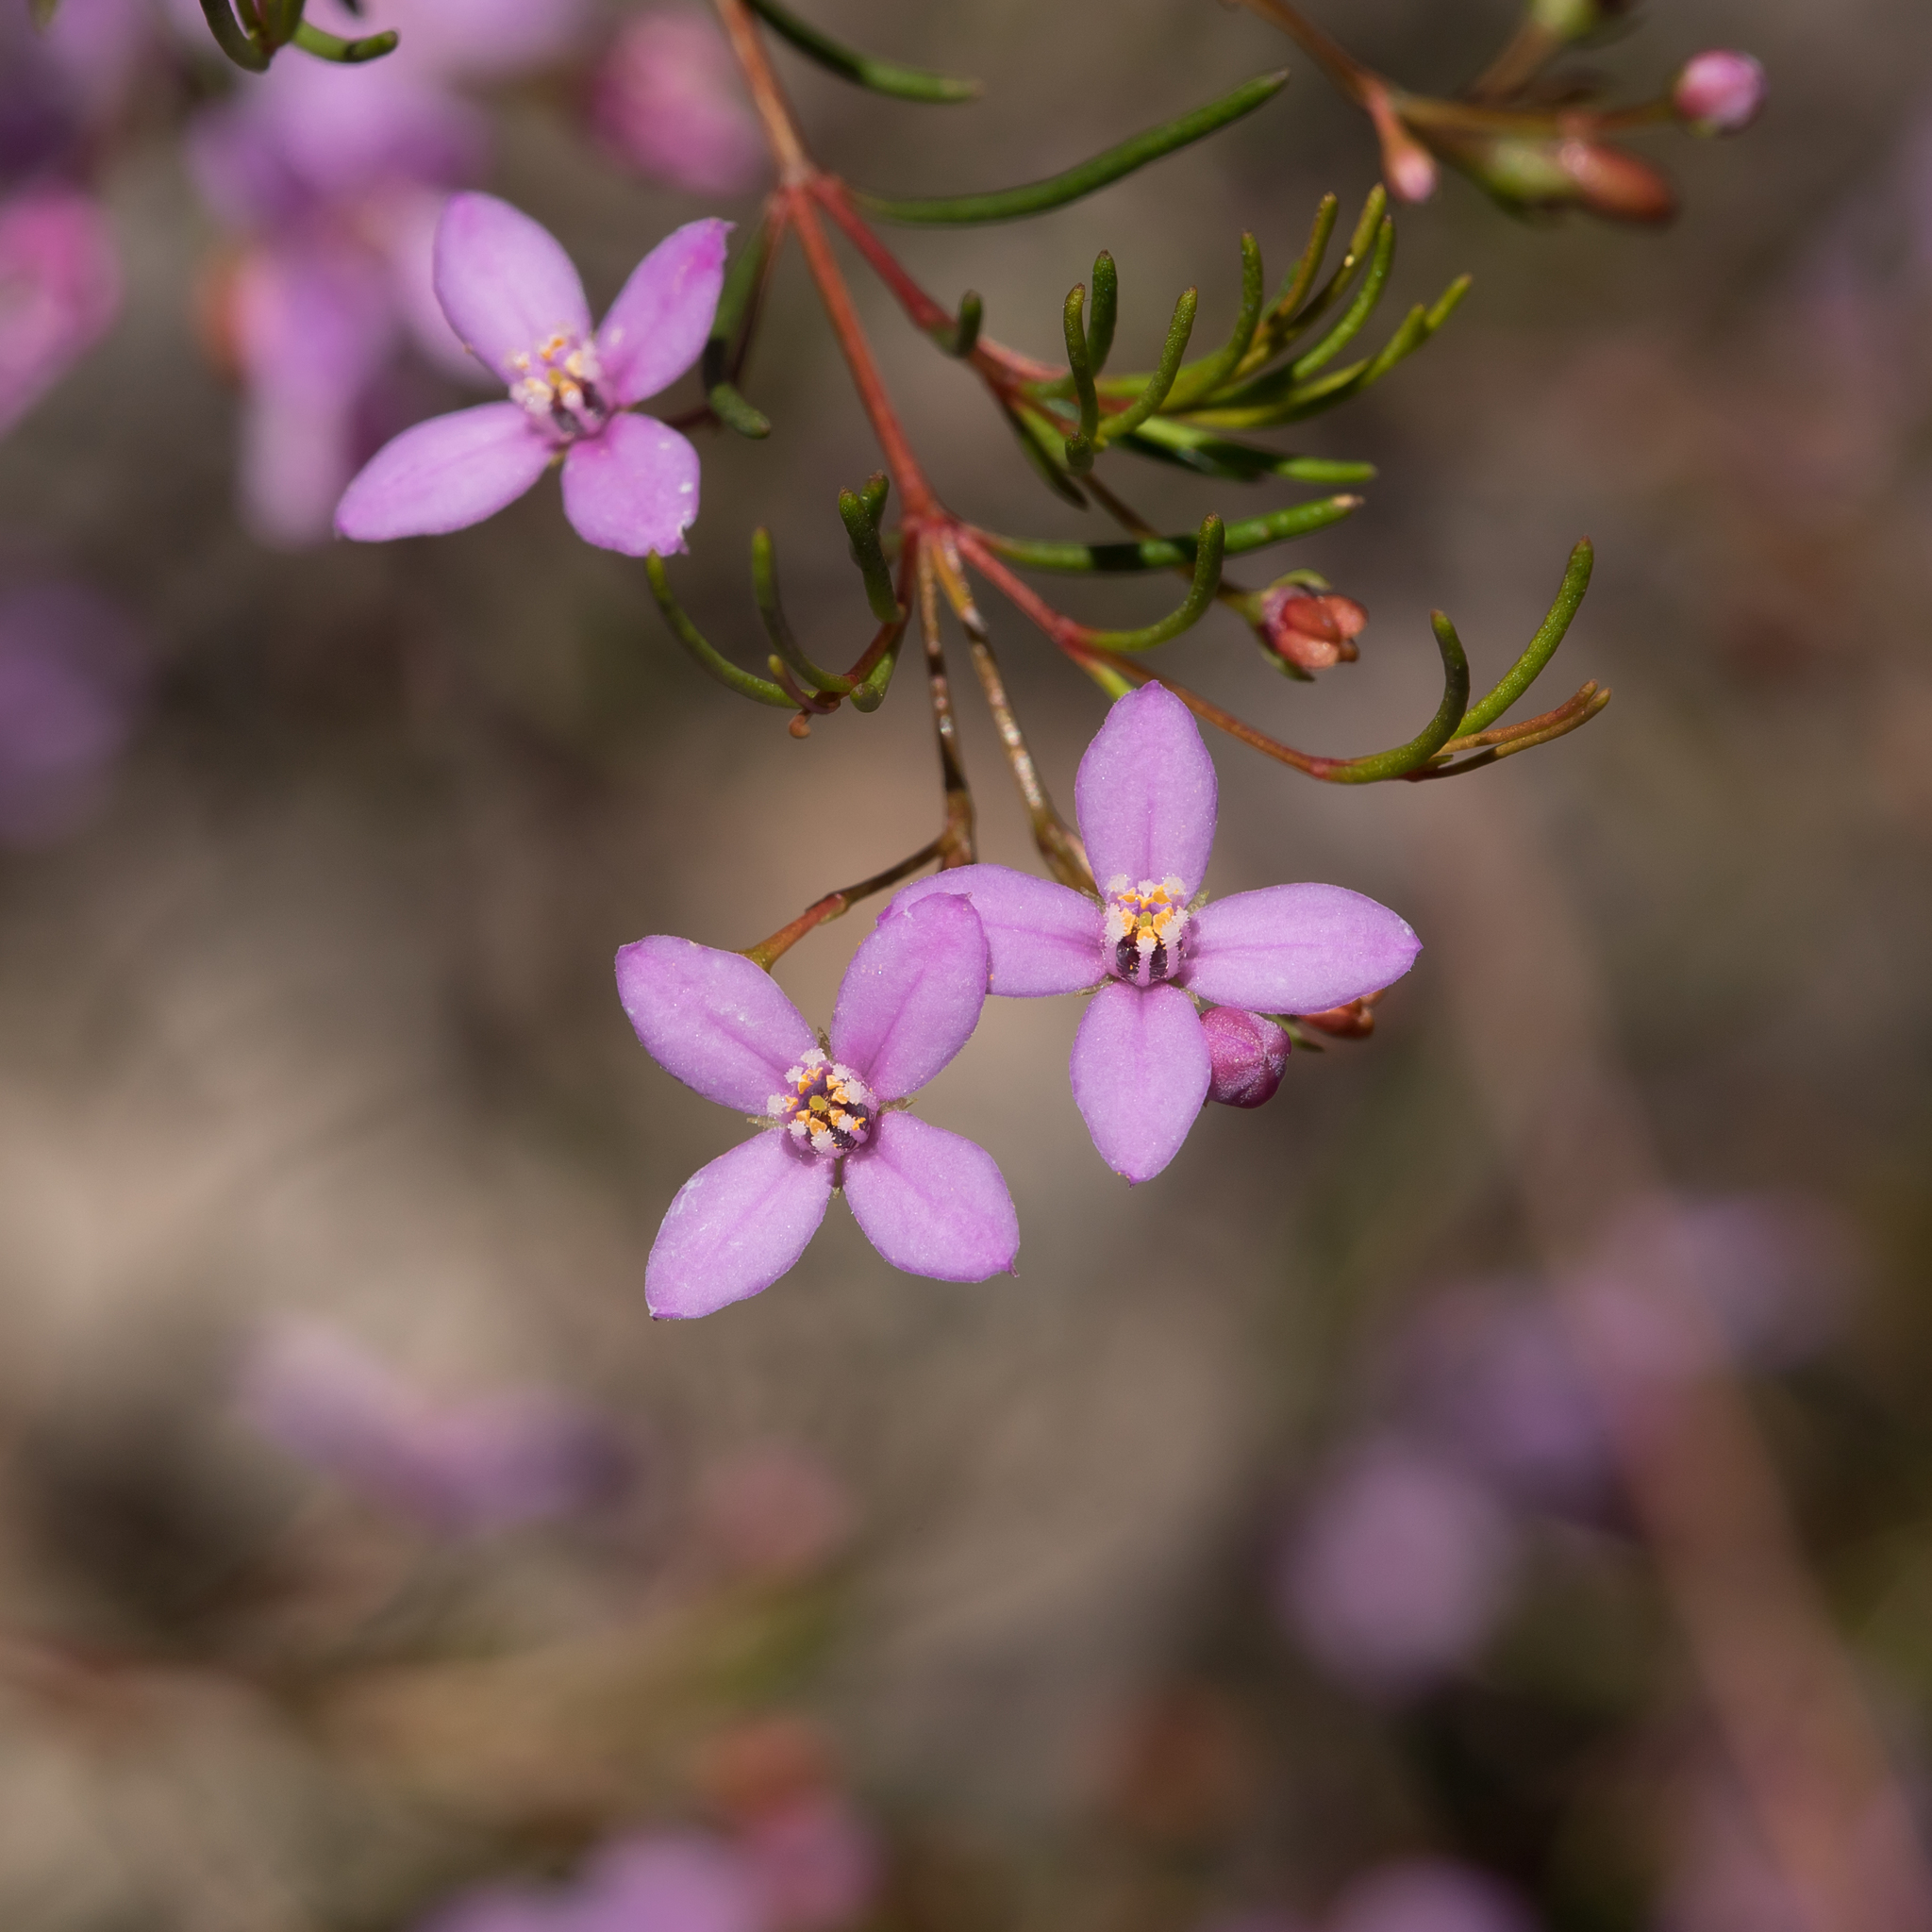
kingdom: Plantae
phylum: Tracheophyta
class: Magnoliopsida
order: Sapindales
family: Rutaceae
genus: Boronia
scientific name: Boronia filifolia
